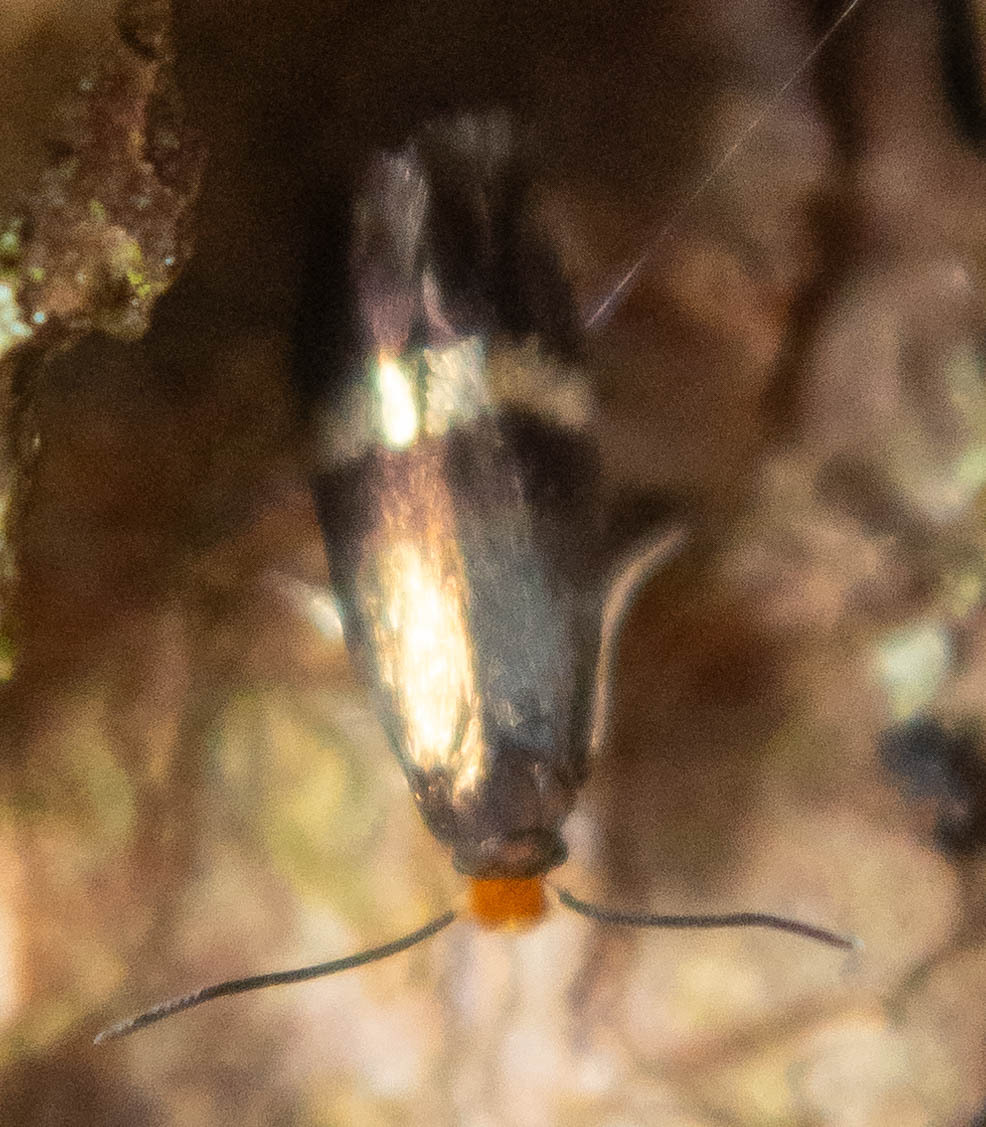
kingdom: Animalia
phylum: Arthropoda
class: Insecta
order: Lepidoptera
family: Nepticulidae
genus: Stigmella
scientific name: Stigmella aurella
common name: Golden pigmy
